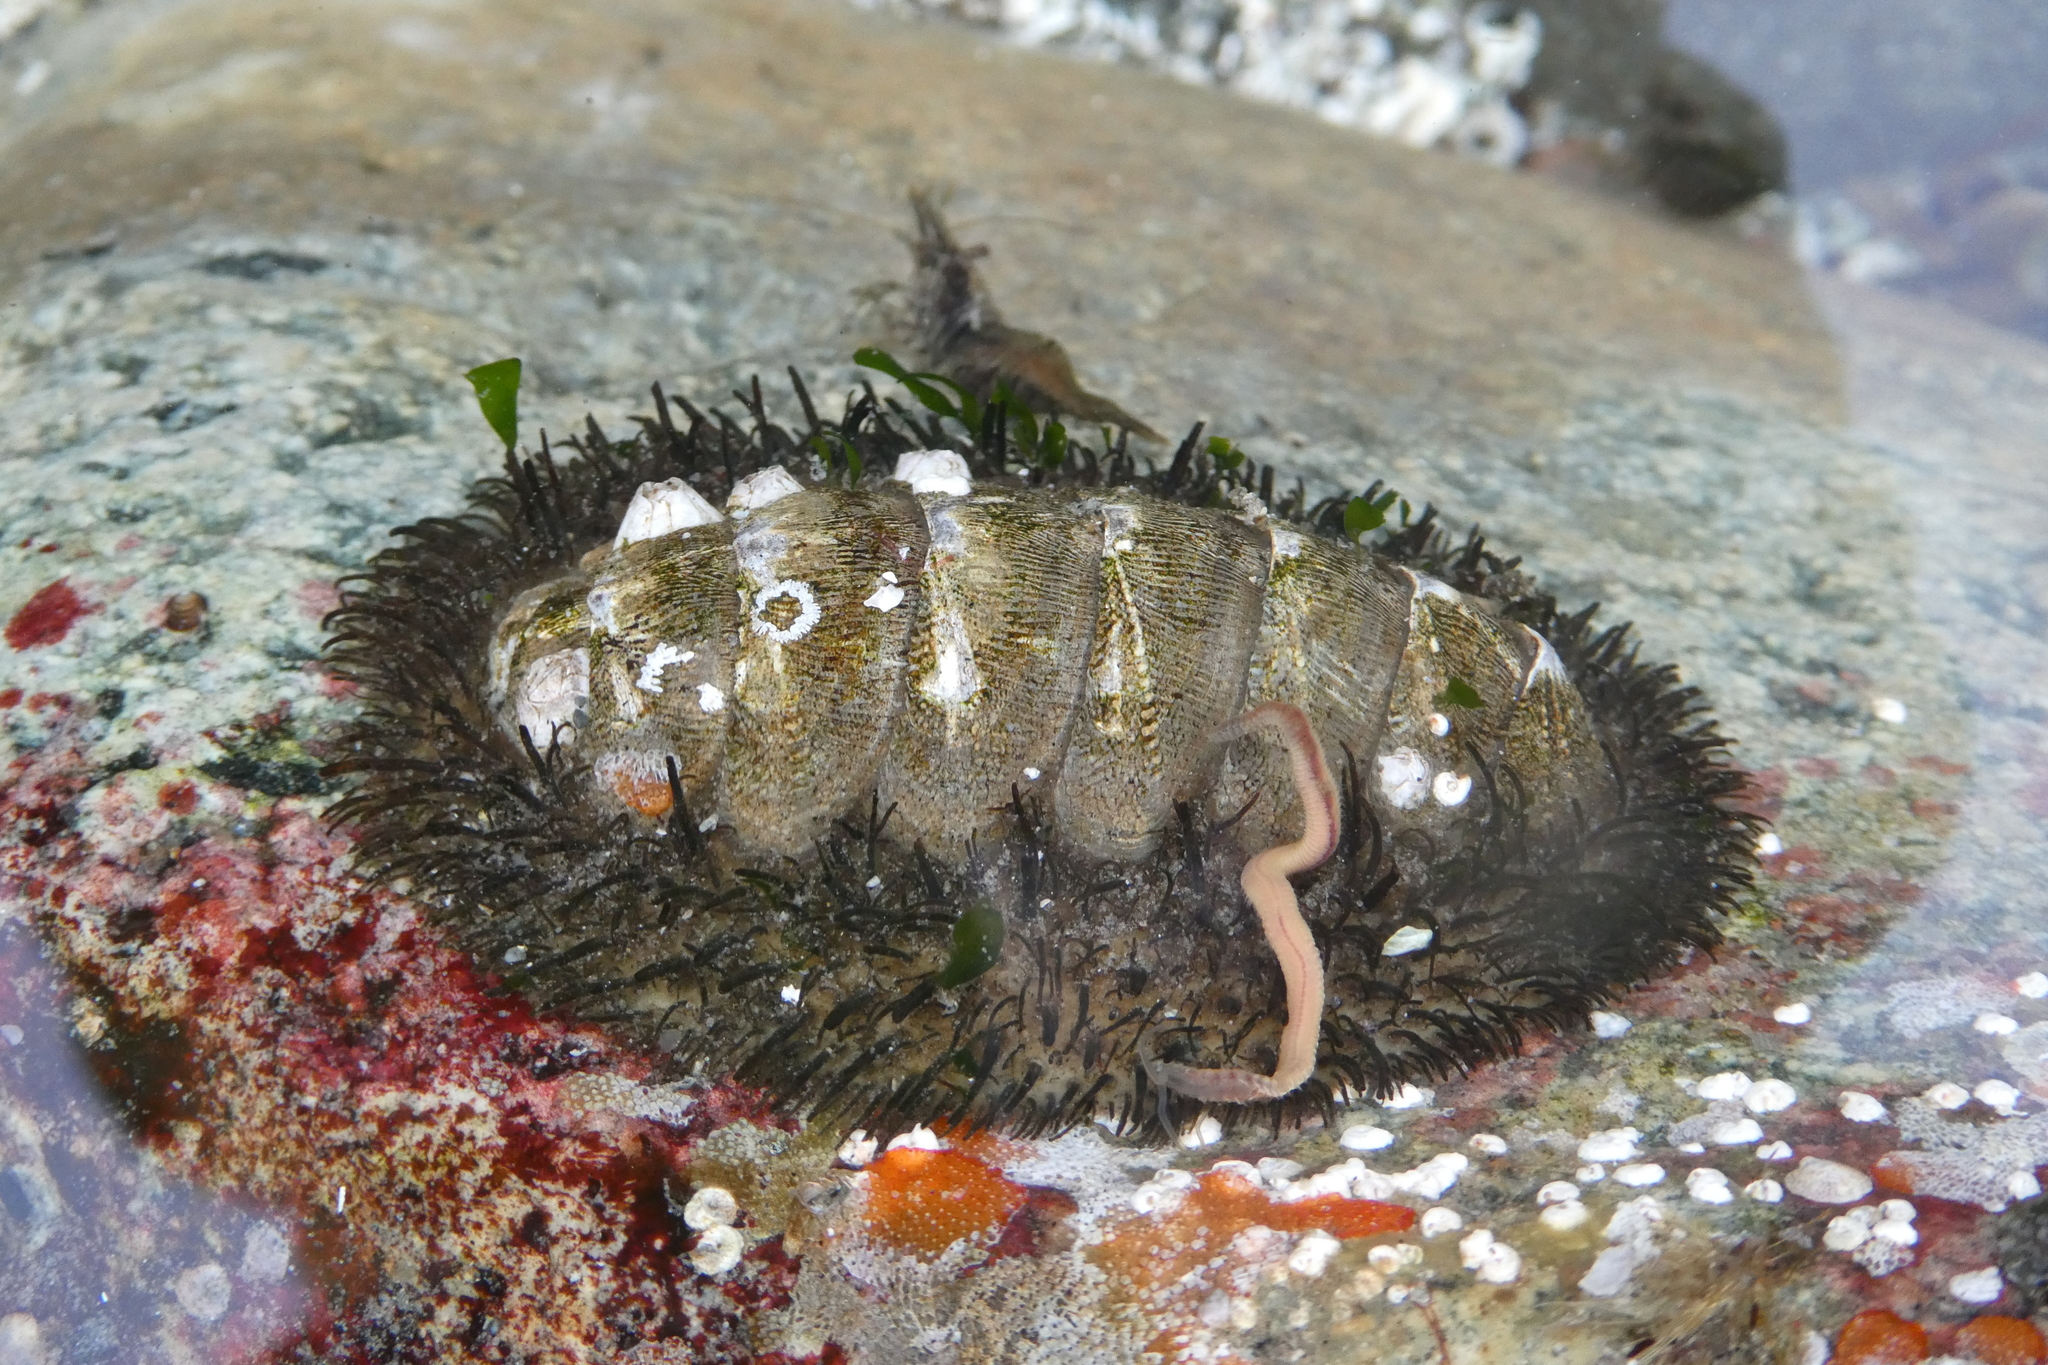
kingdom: Animalia
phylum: Mollusca
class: Polyplacophora
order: Chitonida
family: Mopaliidae
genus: Mopalia
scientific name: Mopalia muscosa
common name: Mossy chiton
